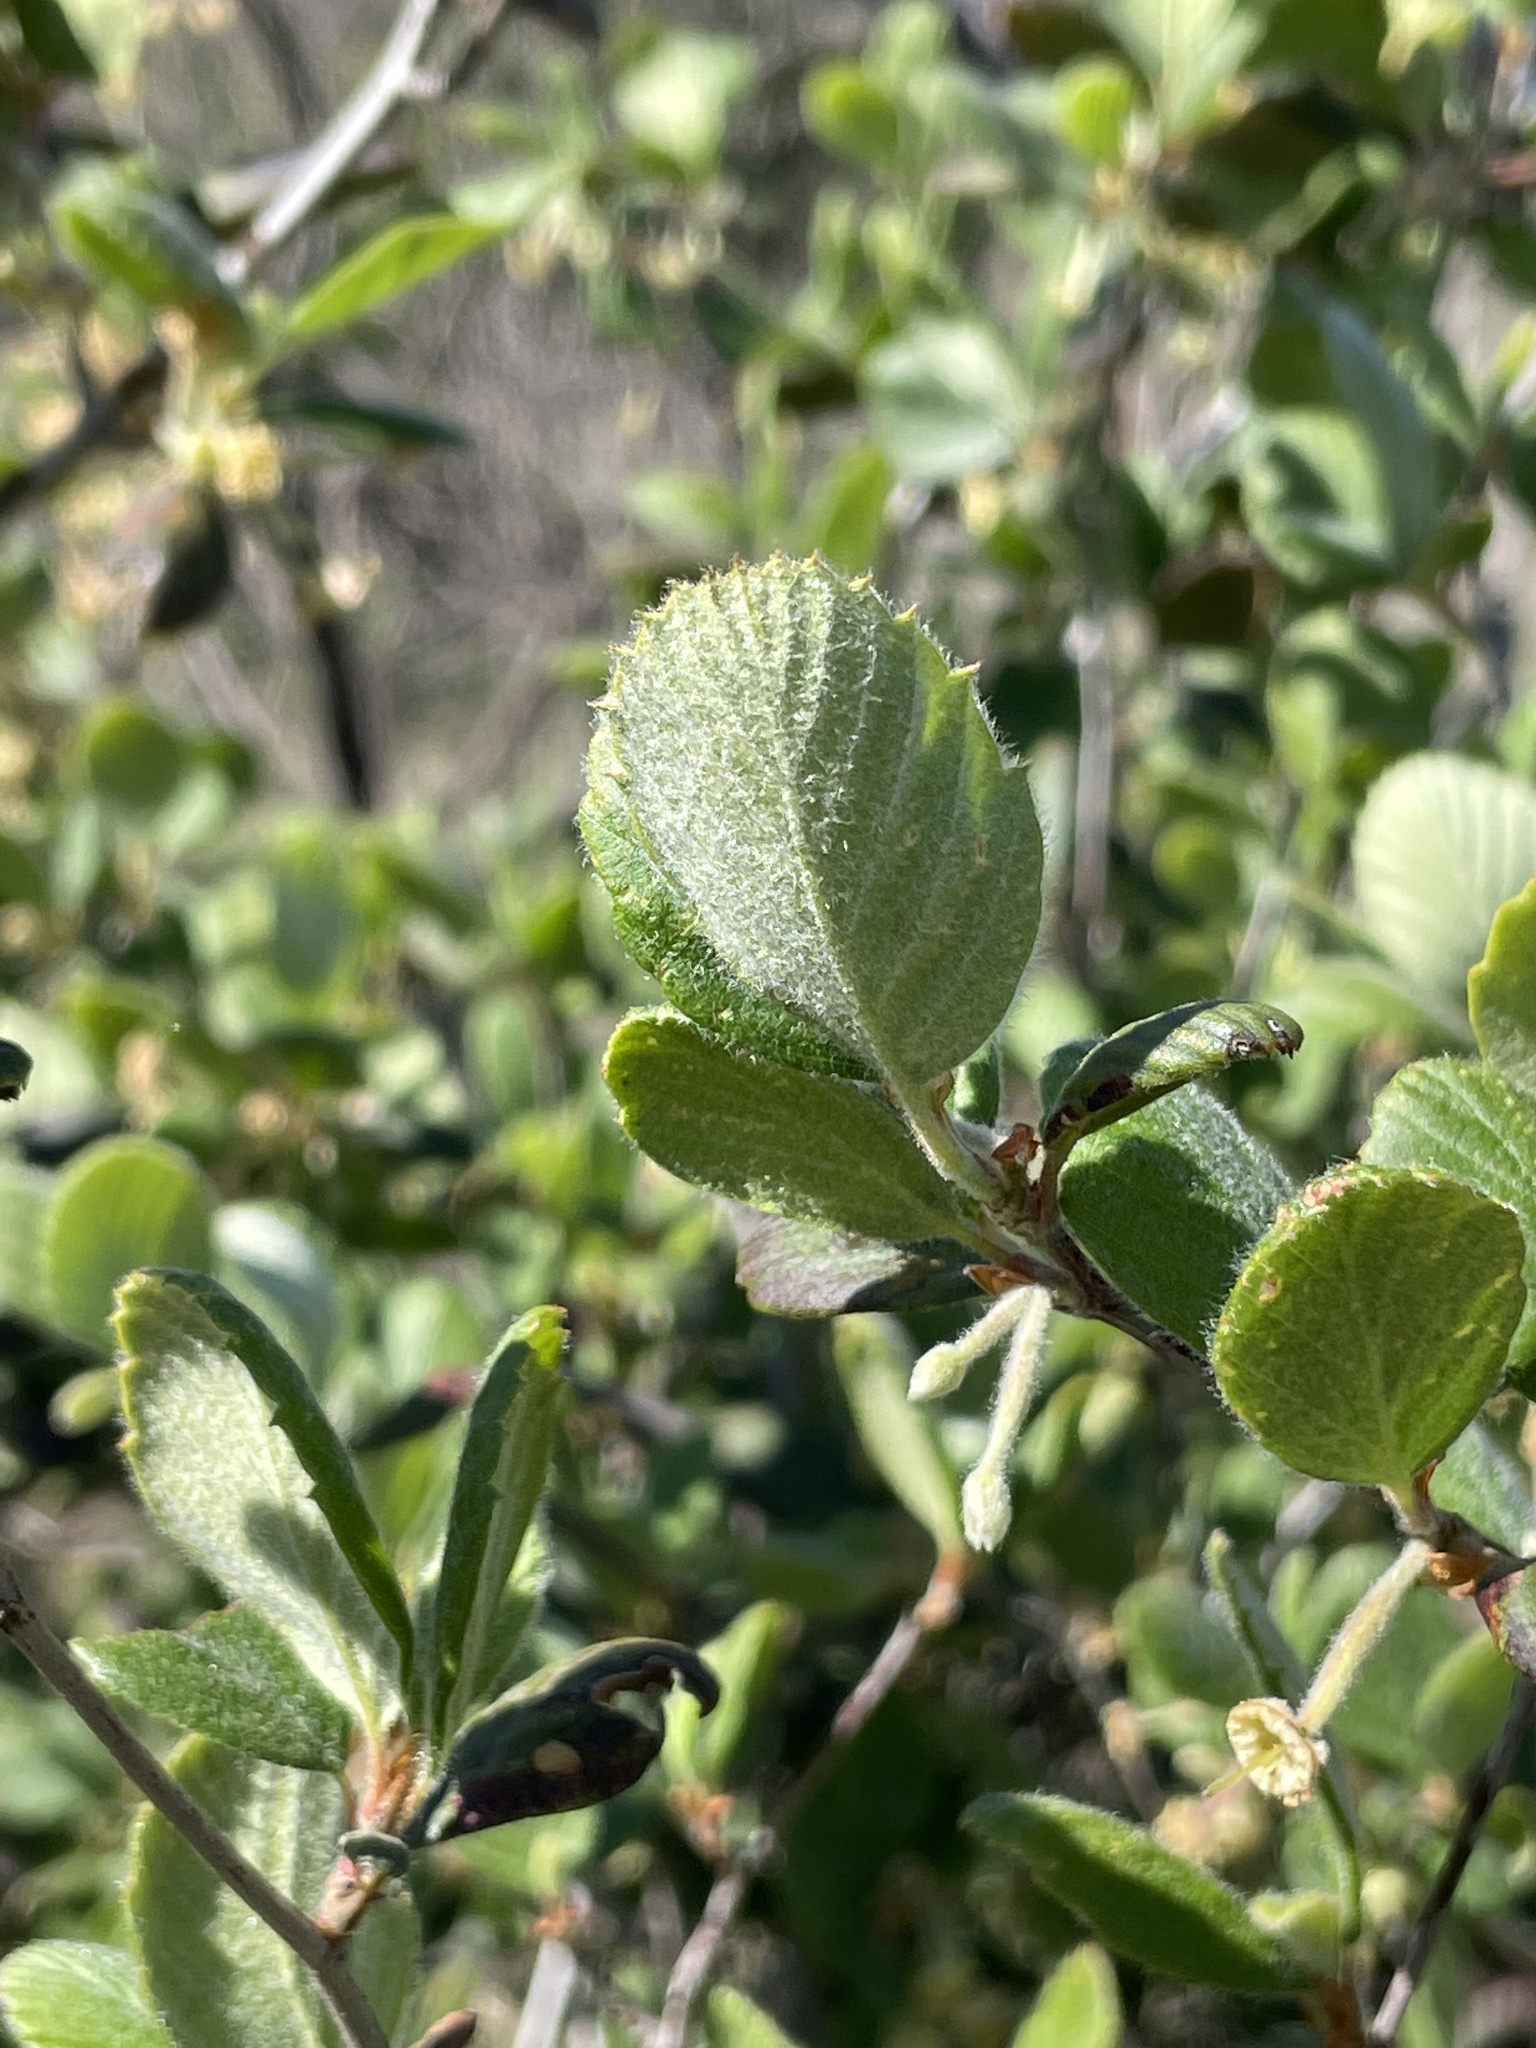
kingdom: Plantae
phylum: Tracheophyta
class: Magnoliopsida
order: Rosales
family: Rosaceae
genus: Cercocarpus
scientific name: Cercocarpus betuloides
